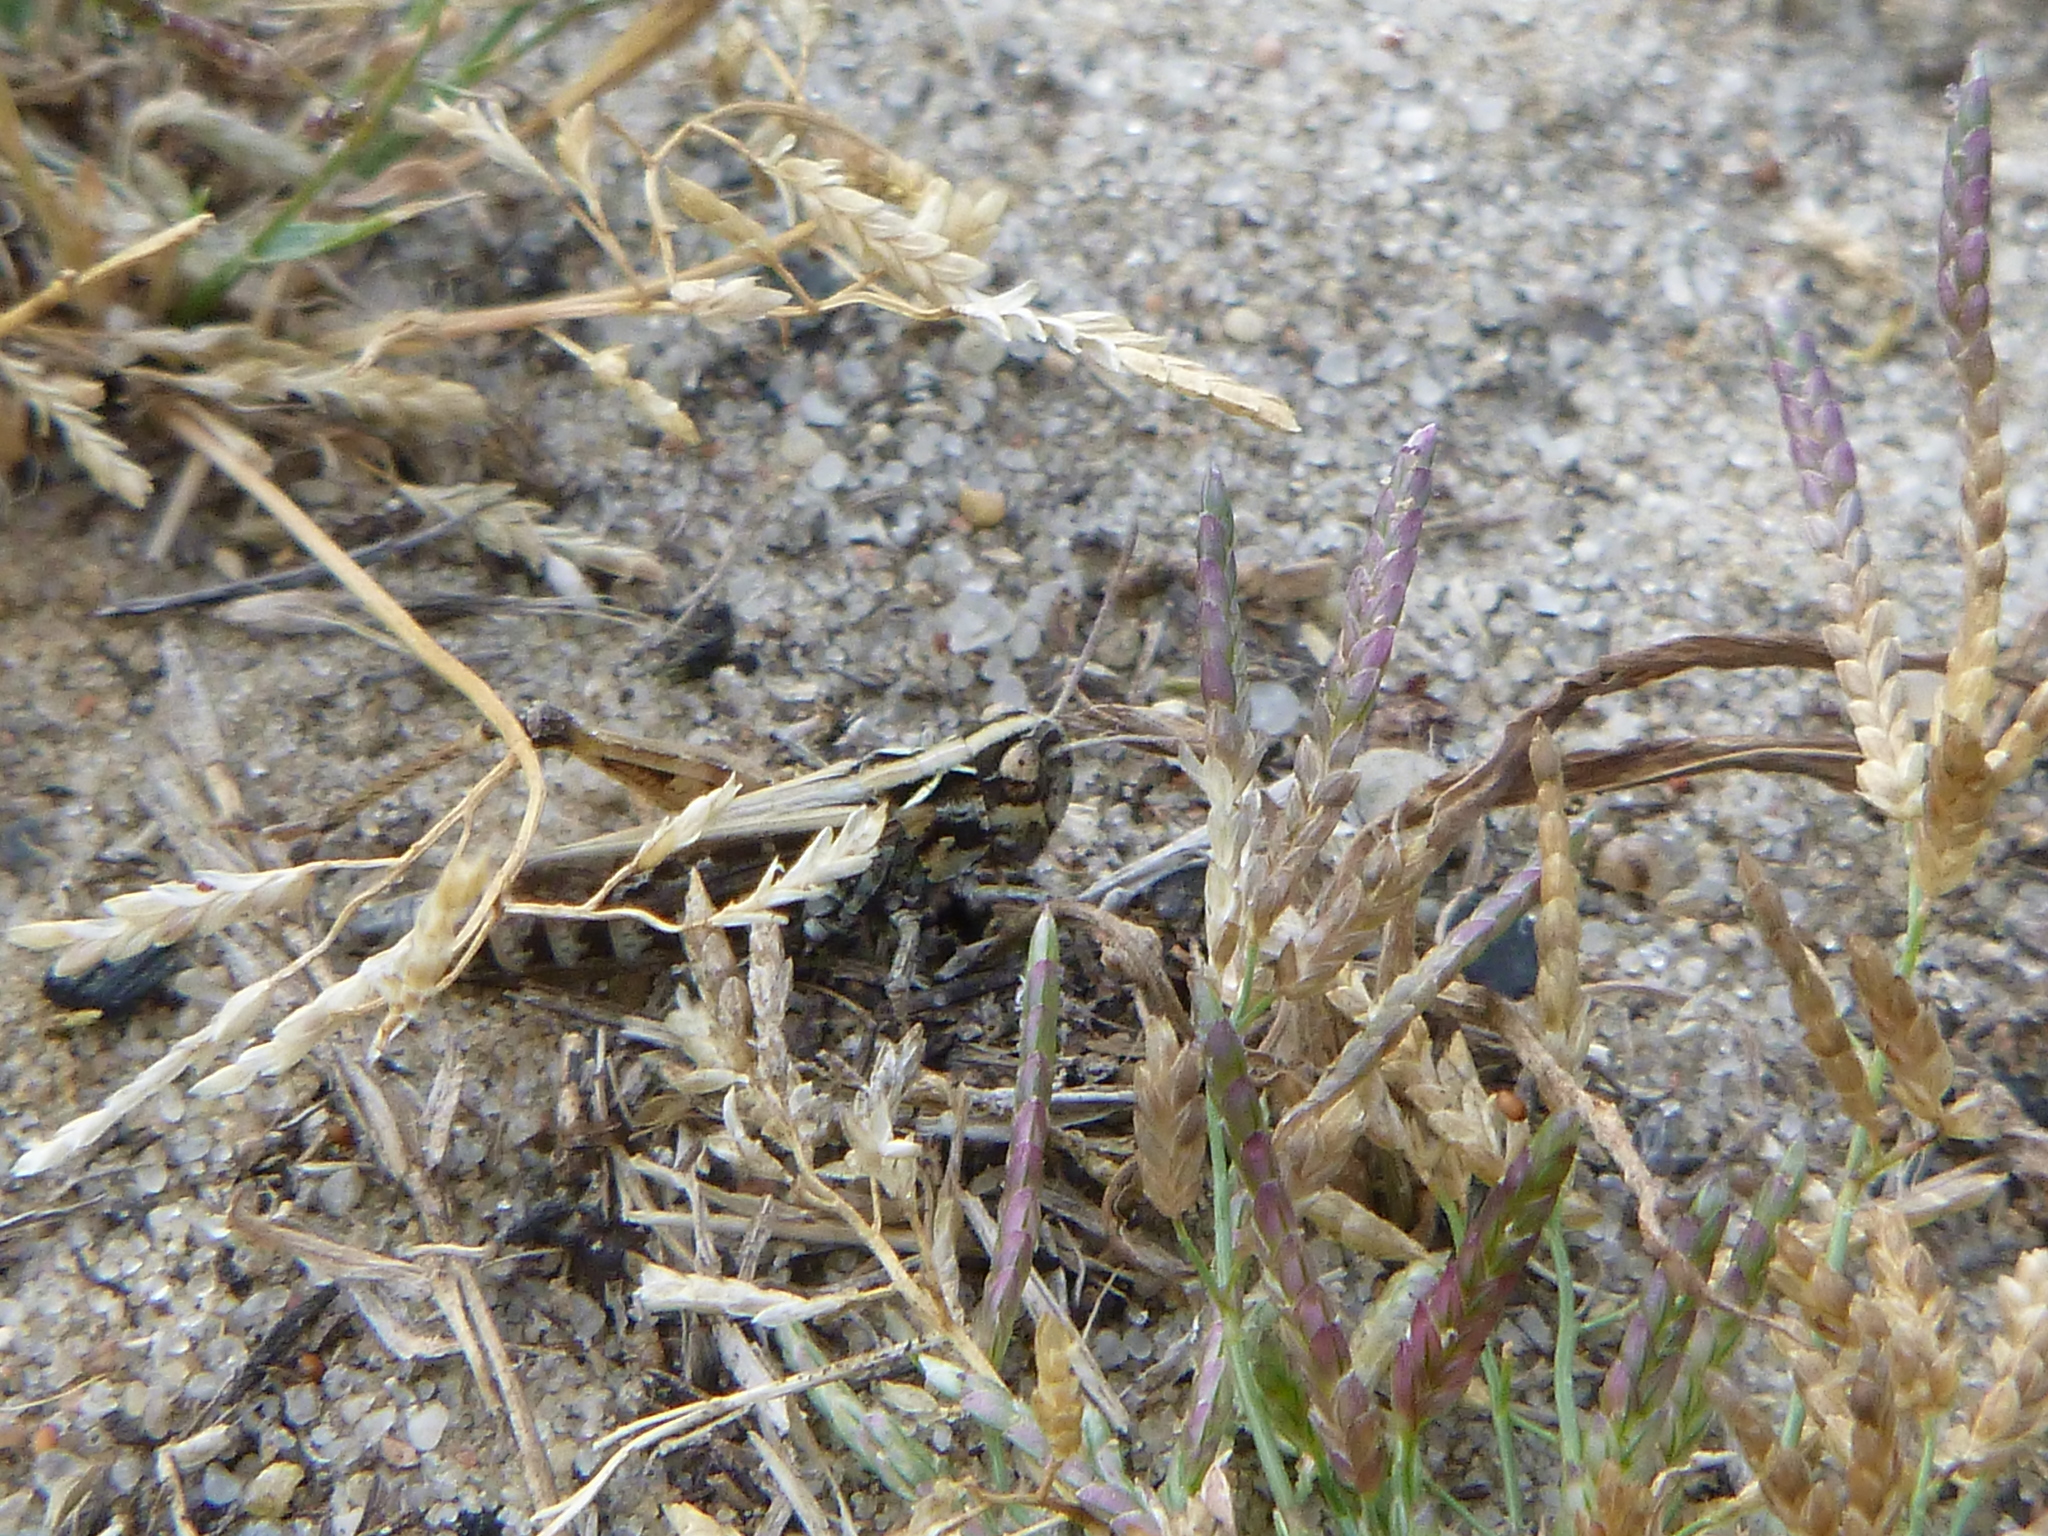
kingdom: Animalia
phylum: Arthropoda
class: Insecta
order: Orthoptera
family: Acrididae
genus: Myrmeleotettix
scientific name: Myrmeleotettix maculatus
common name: Mottled grasshopper
